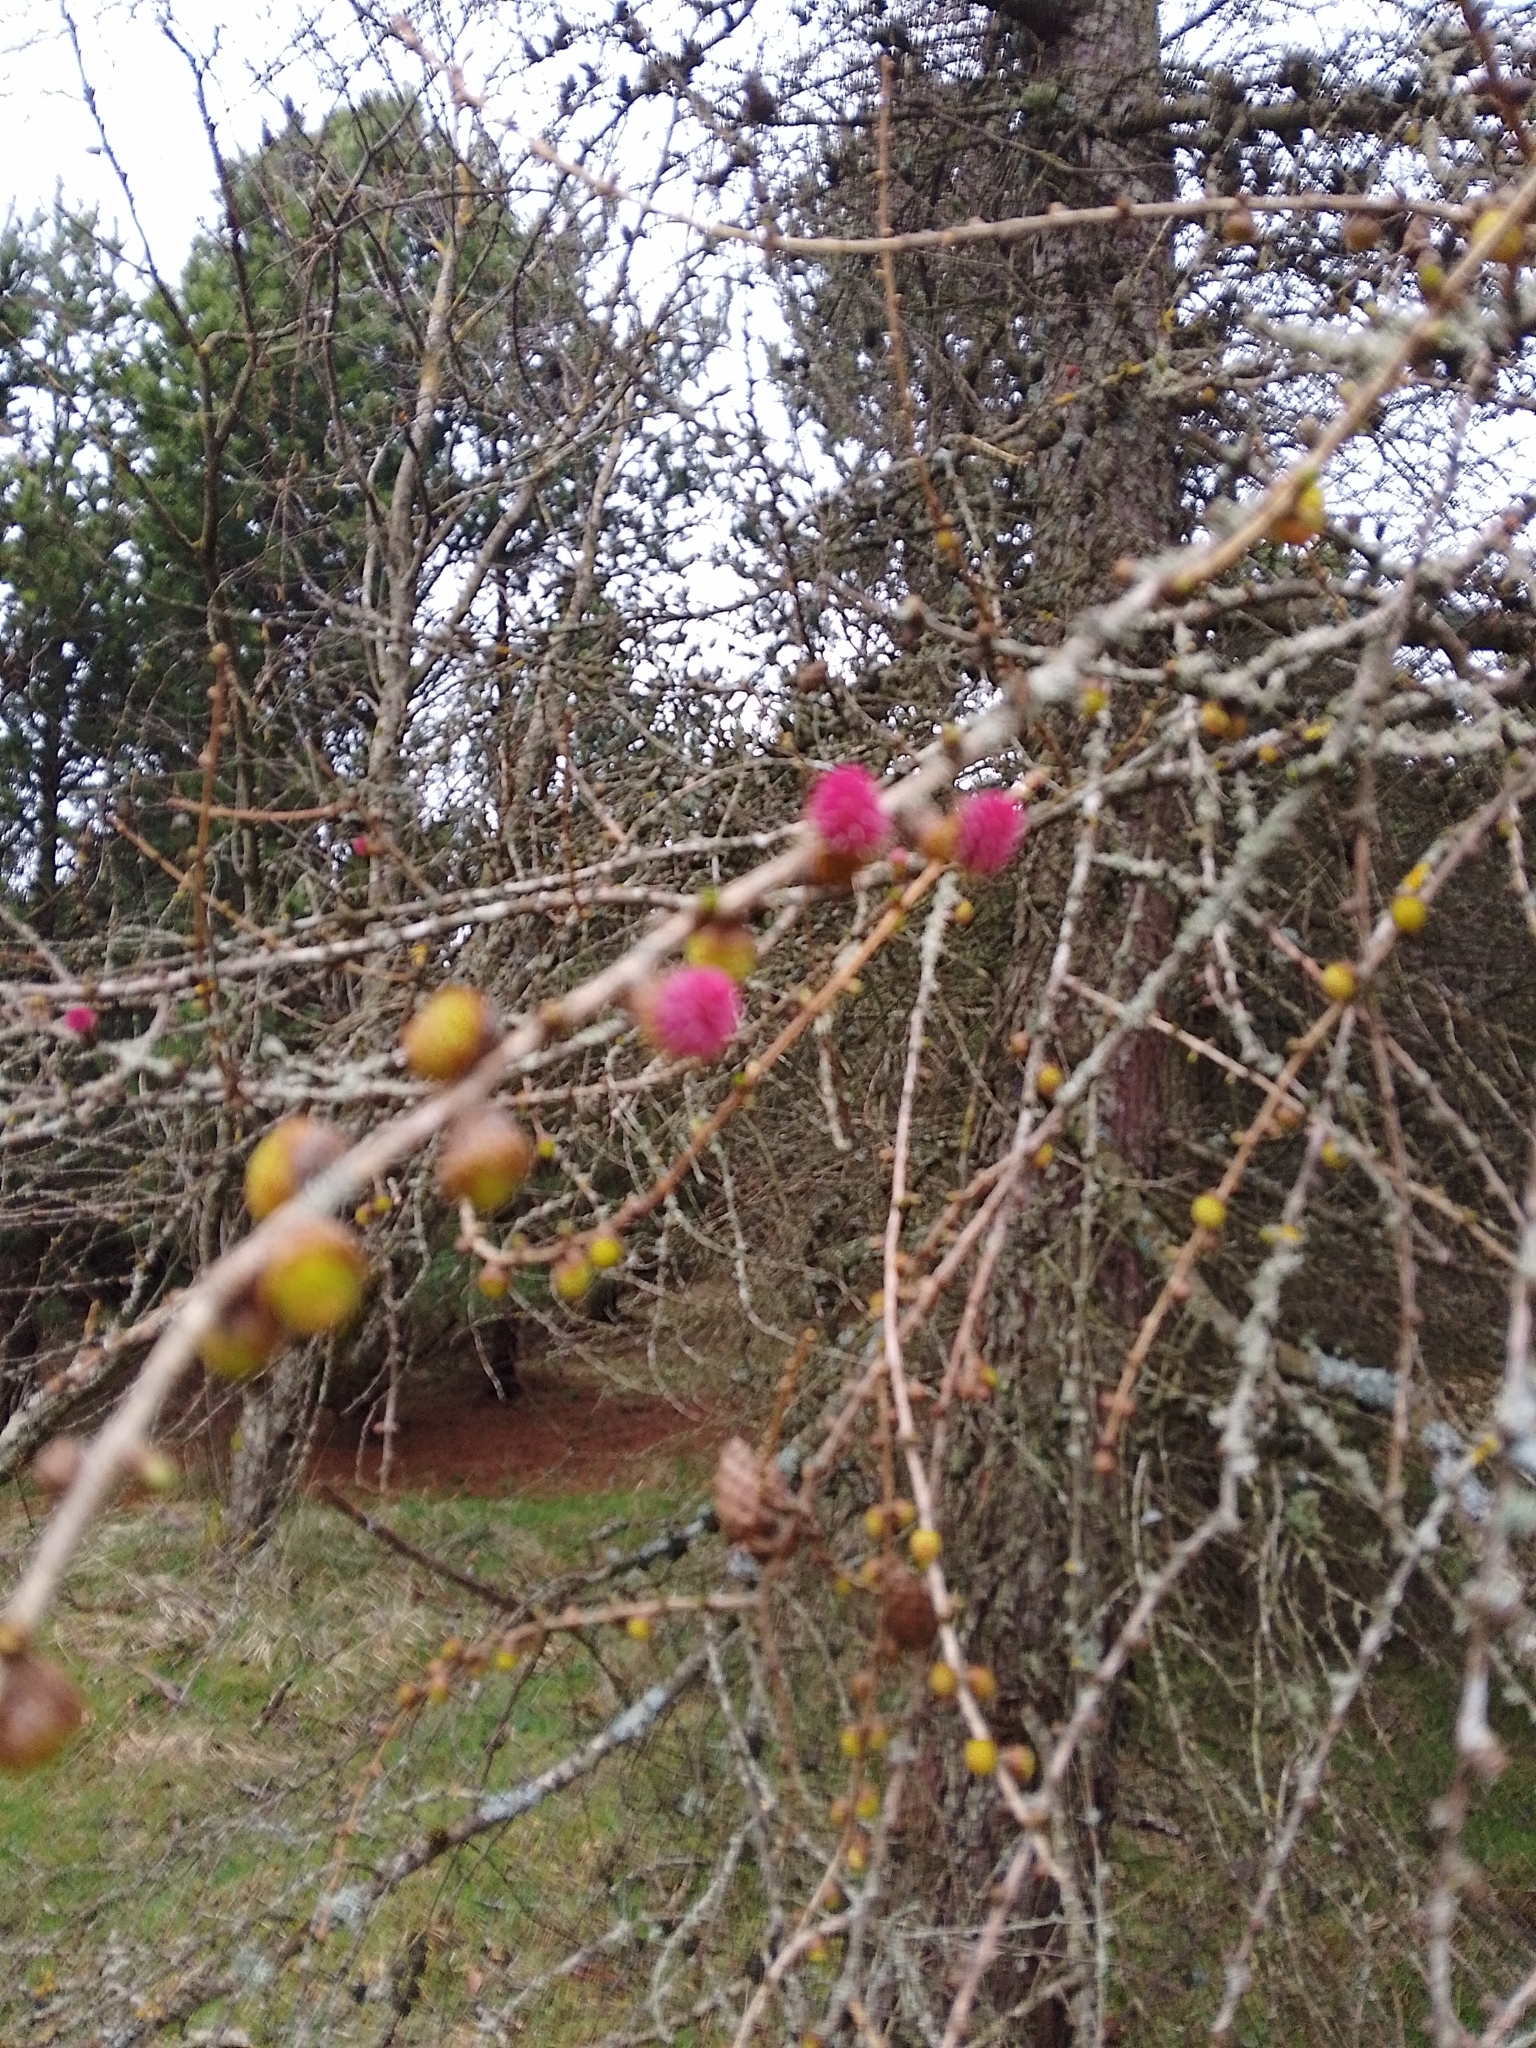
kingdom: Plantae
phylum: Tracheophyta
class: Pinopsida
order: Pinales
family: Pinaceae
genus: Larix
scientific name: Larix decidua
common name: European larch
